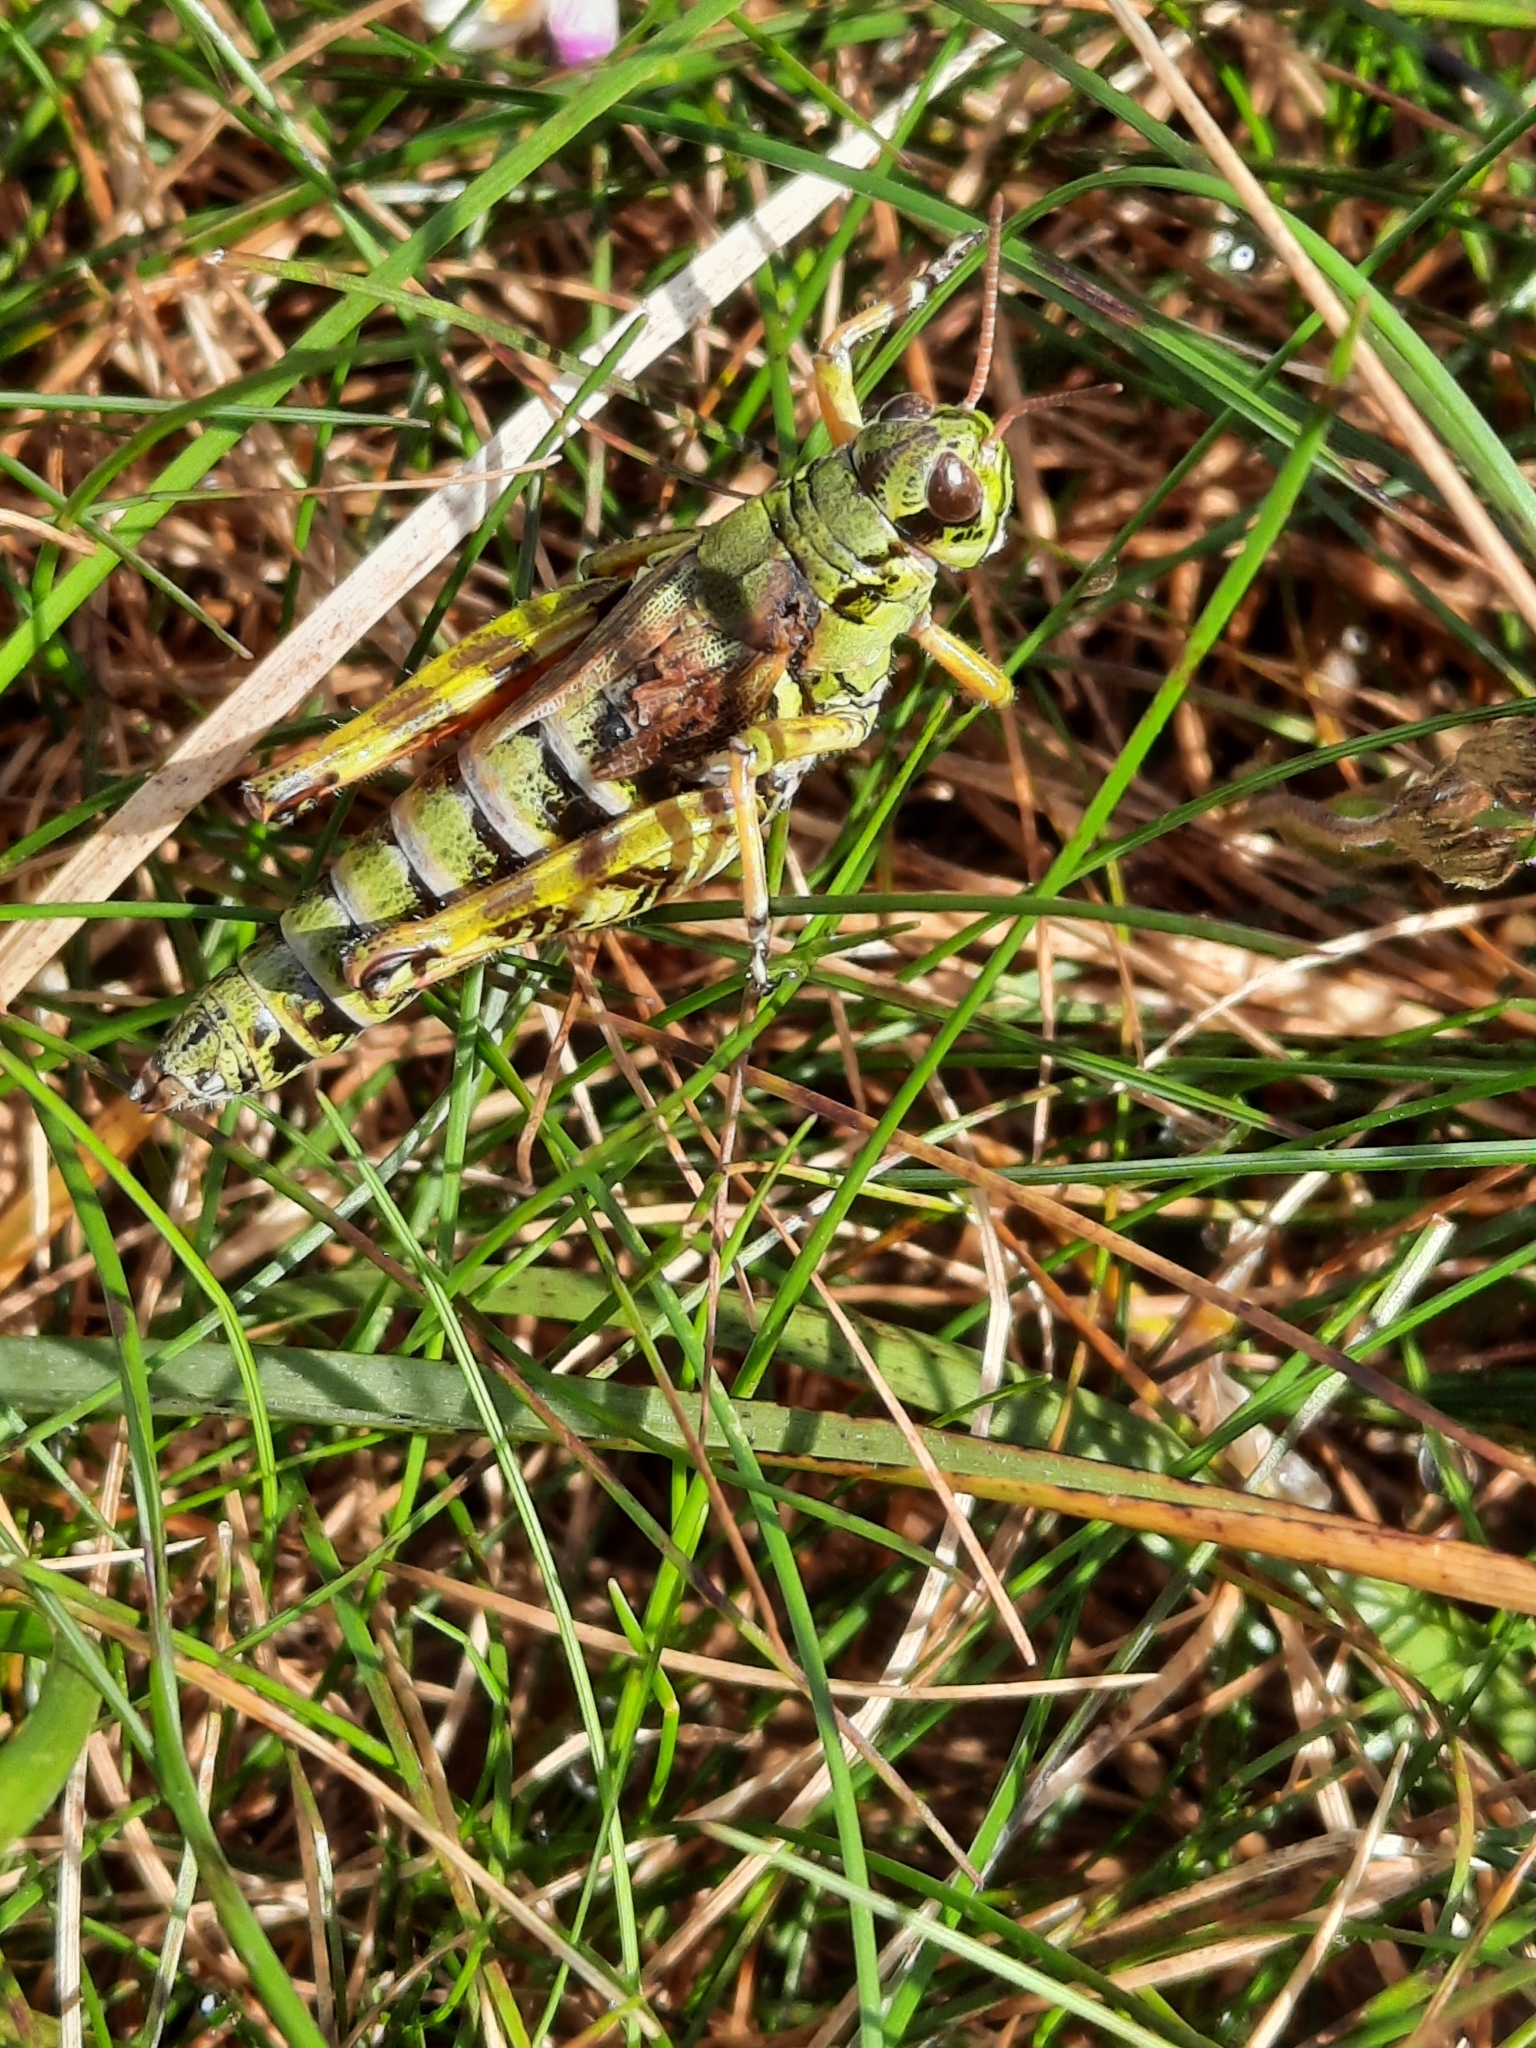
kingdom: Animalia
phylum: Arthropoda
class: Insecta
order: Orthoptera
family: Acrididae
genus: Bohemanella
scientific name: Bohemanella frigida
